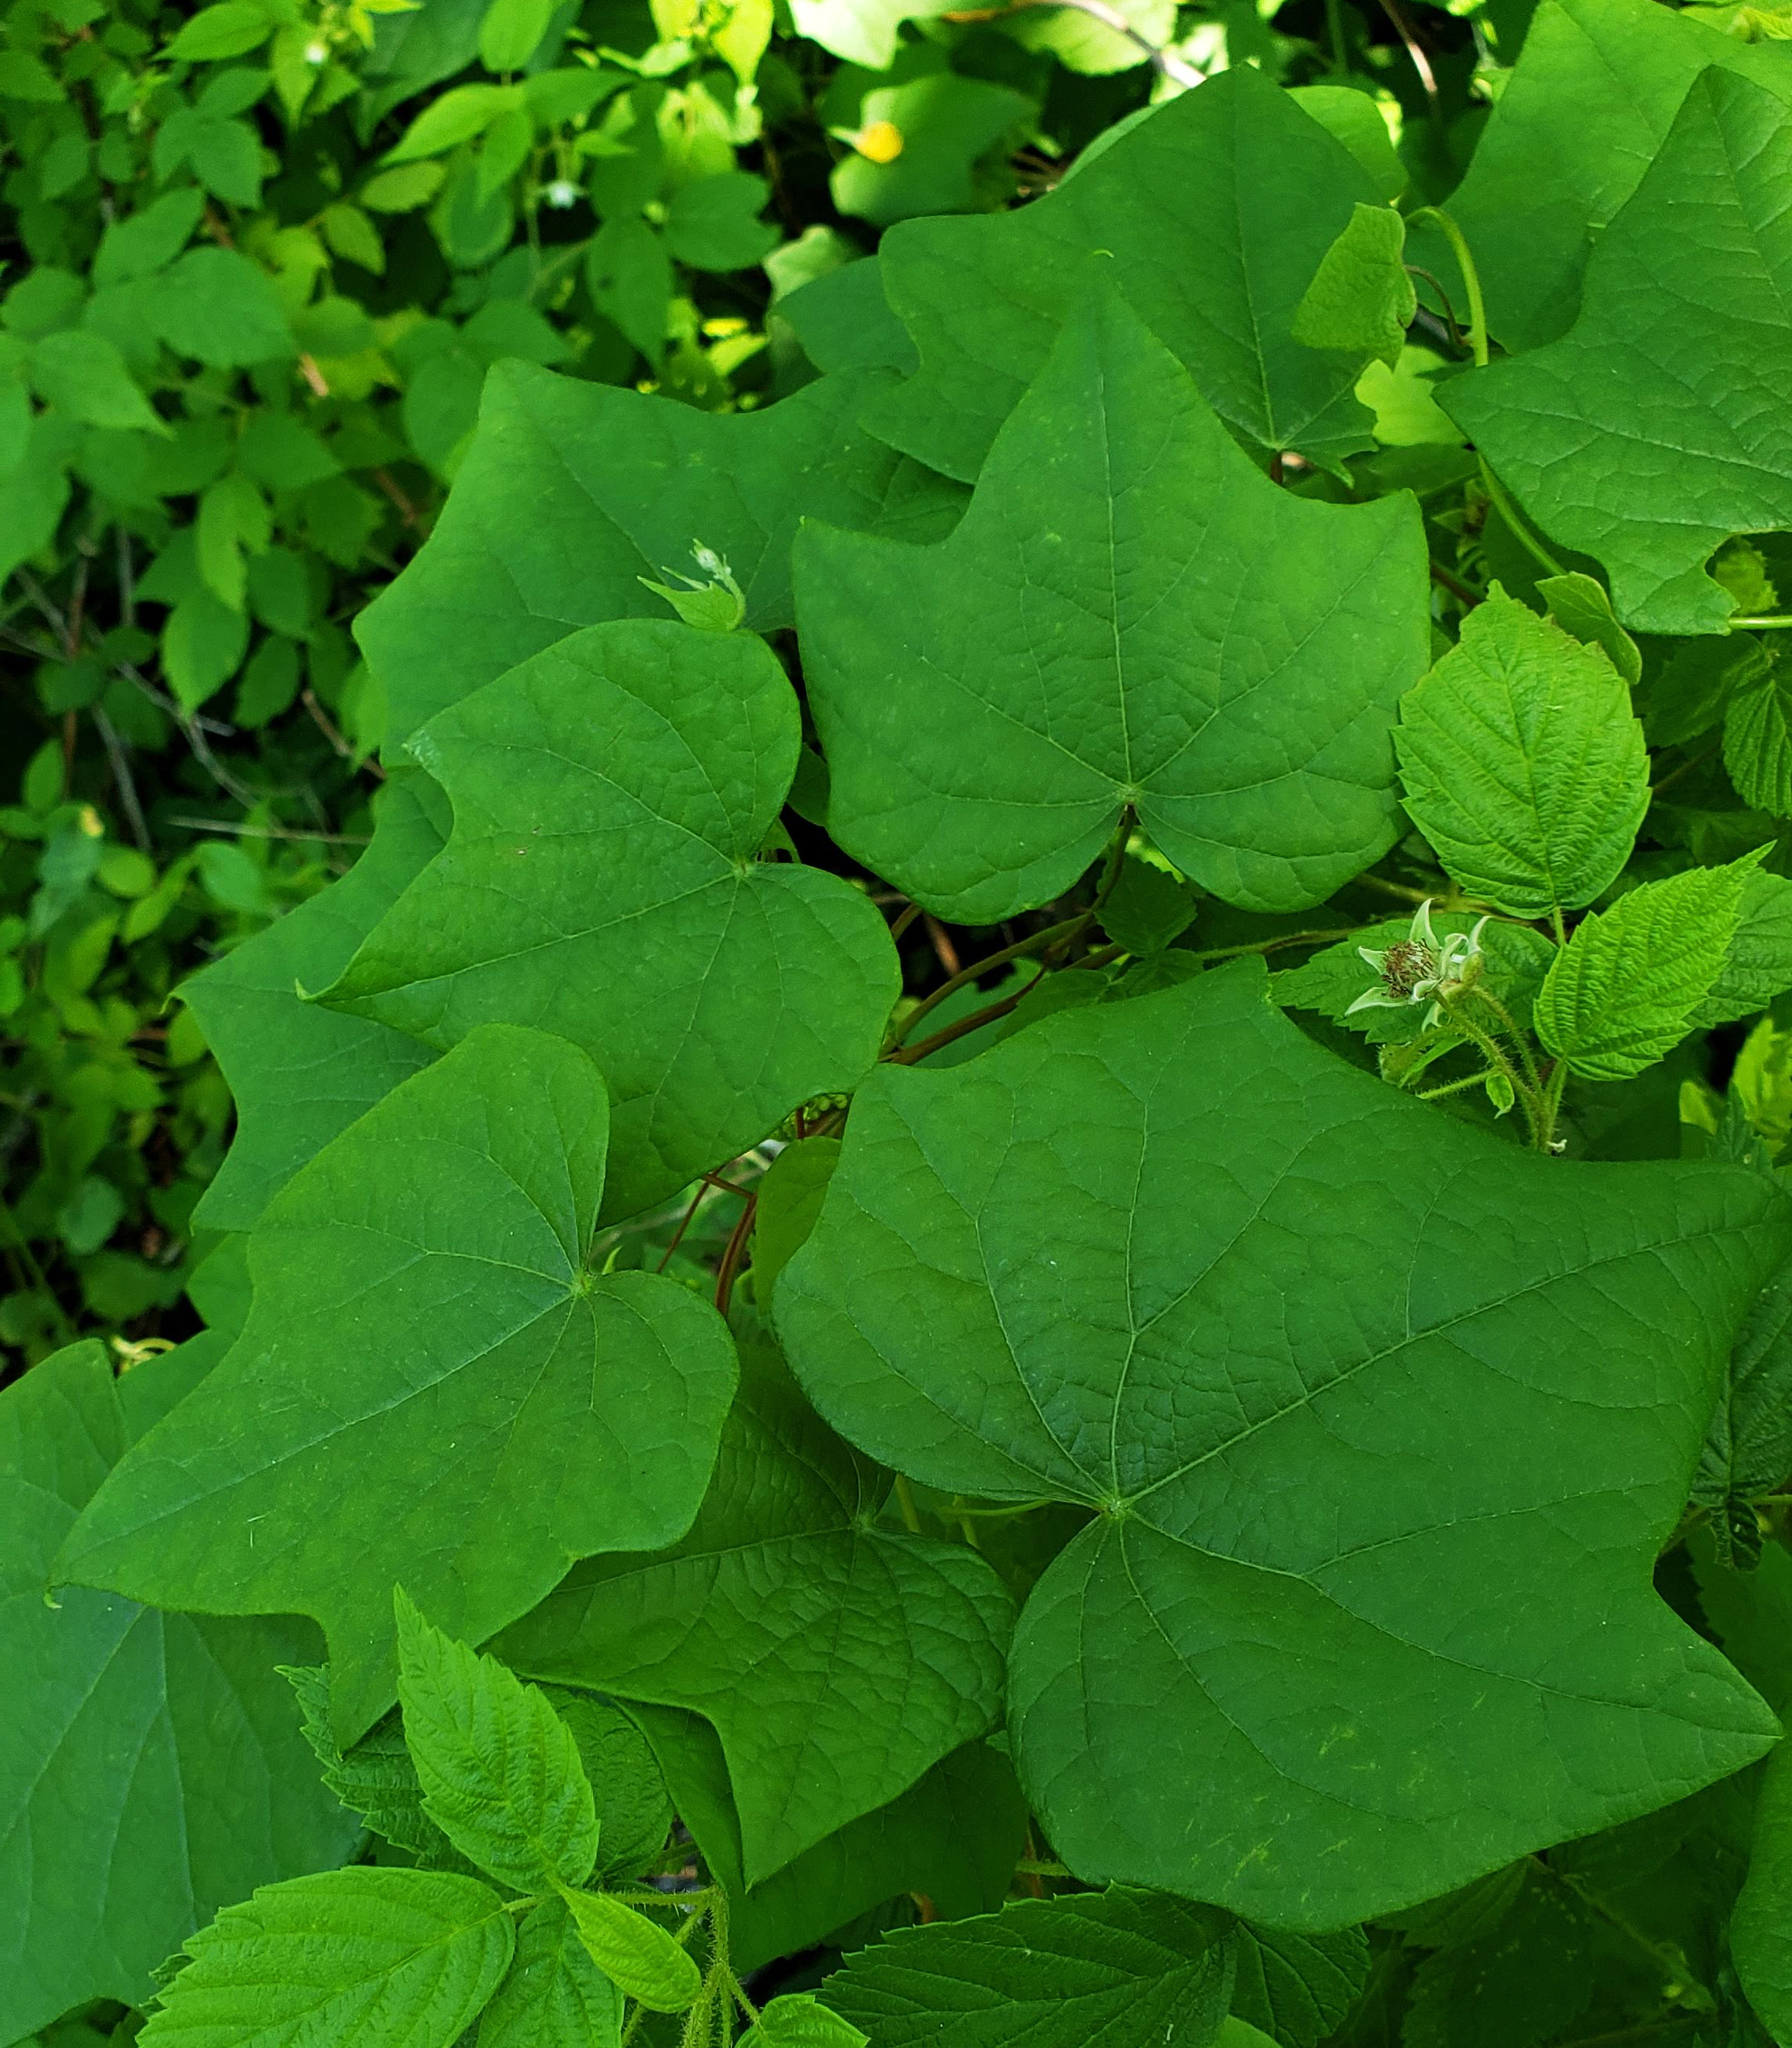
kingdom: Plantae
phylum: Tracheophyta
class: Magnoliopsida
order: Ranunculales
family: Menispermaceae
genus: Menispermum
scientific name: Menispermum canadense
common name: Moonseed
